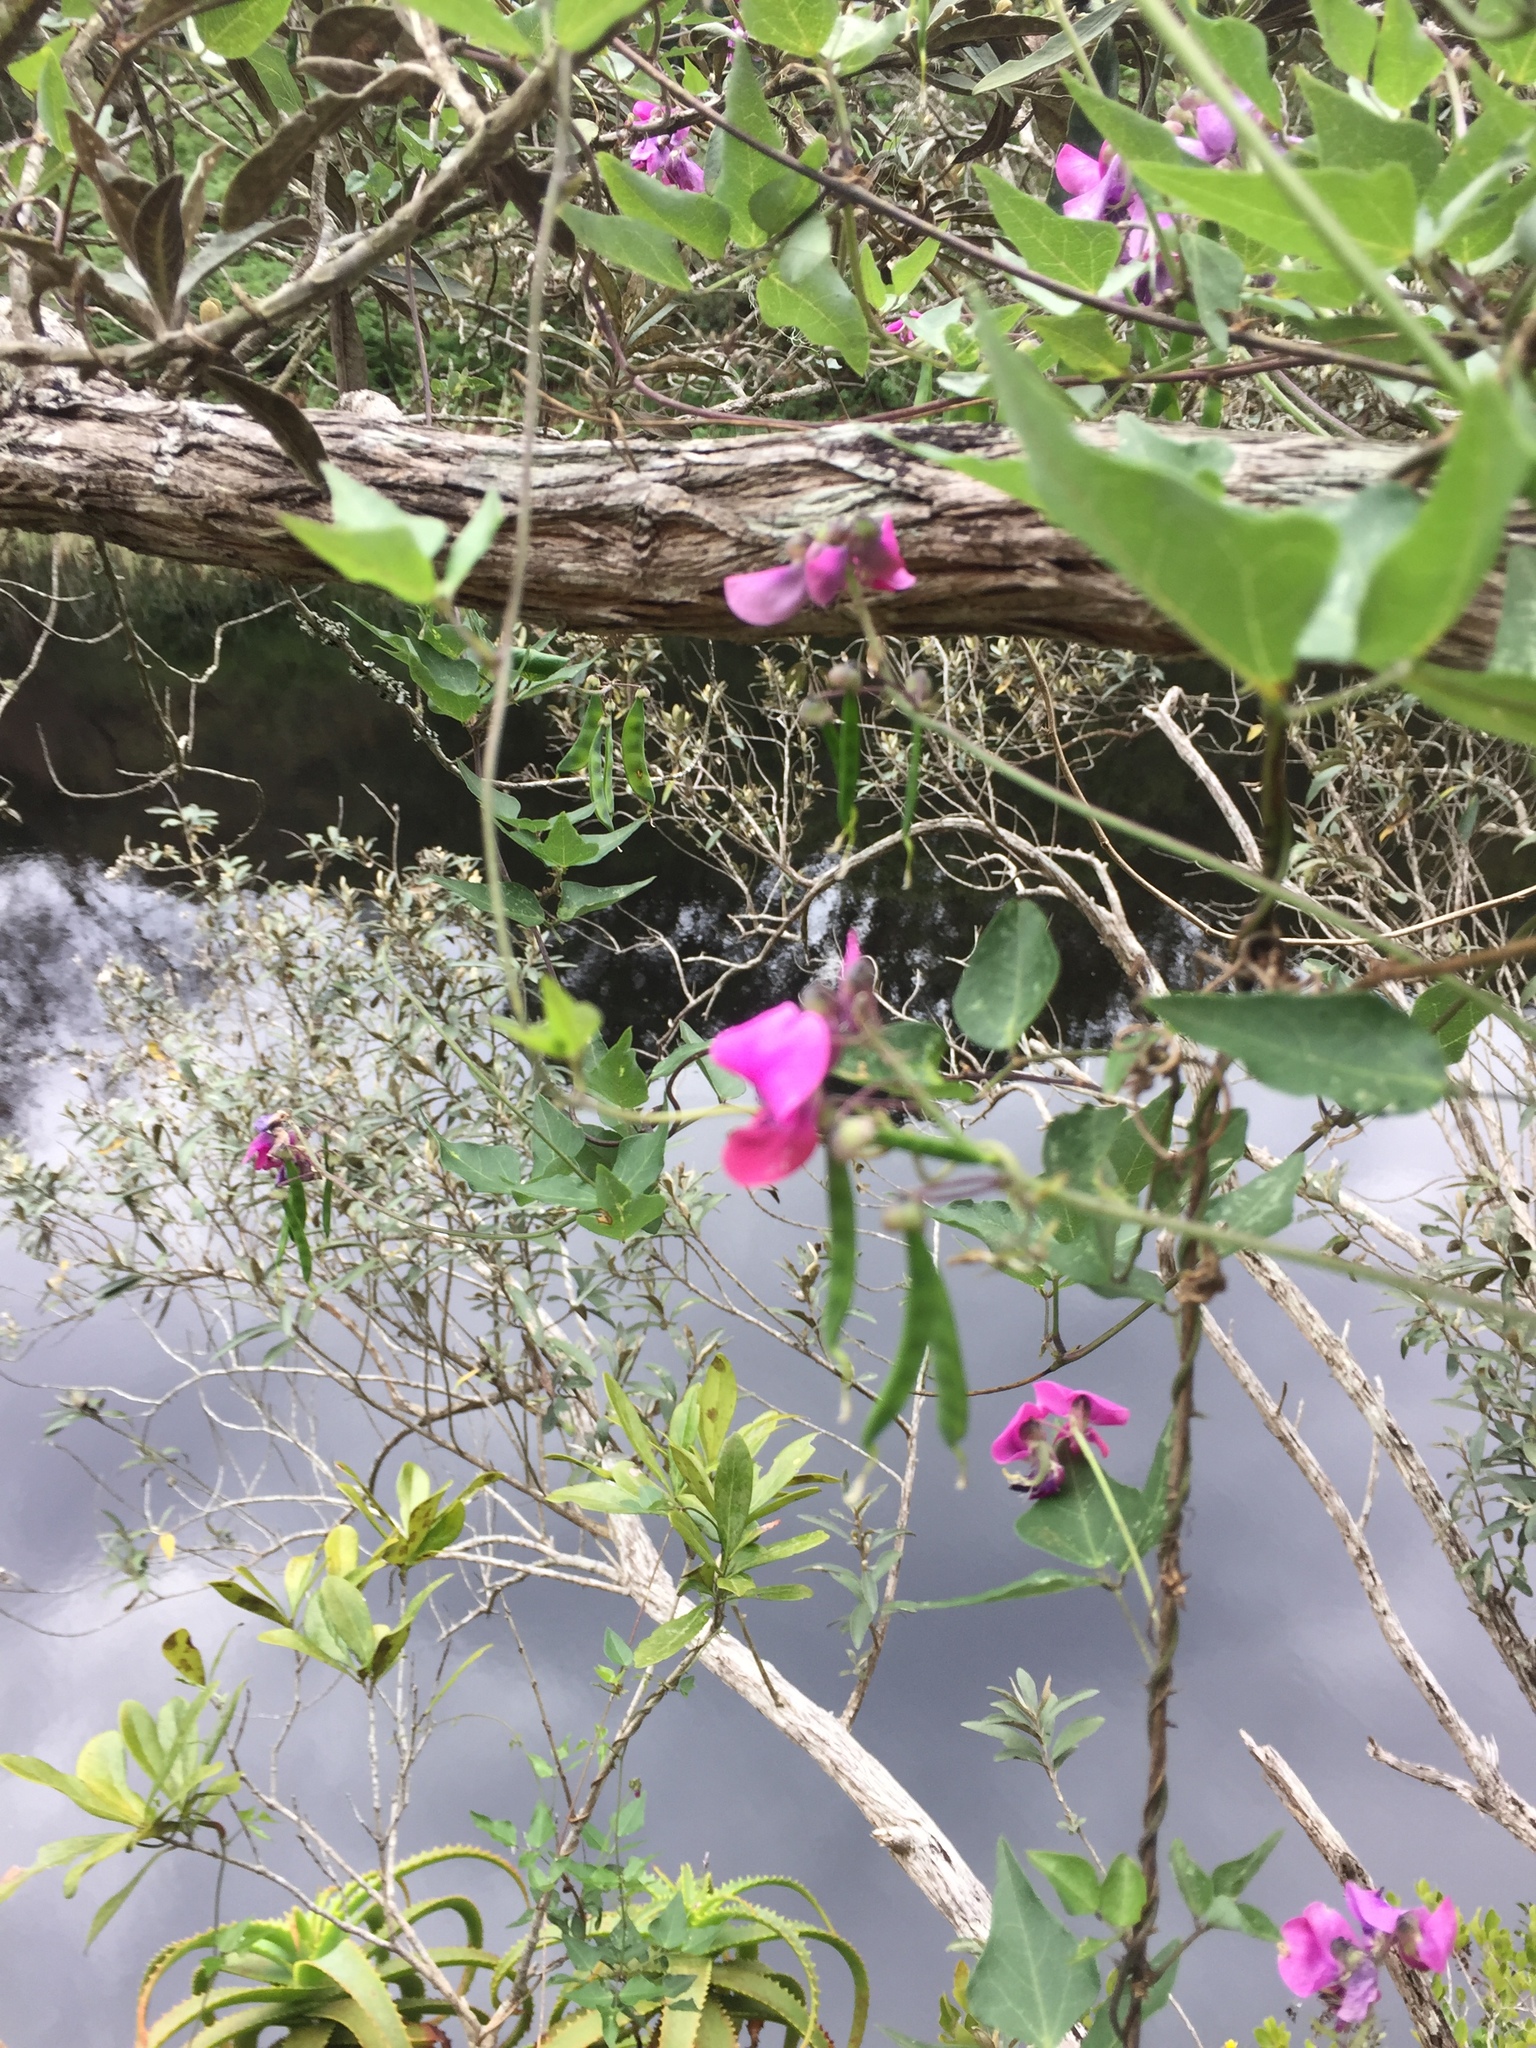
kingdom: Plantae
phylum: Tracheophyta
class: Magnoliopsida
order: Fabales
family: Fabaceae
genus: Dipogon
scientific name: Dipogon lignosus
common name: Okie bean
